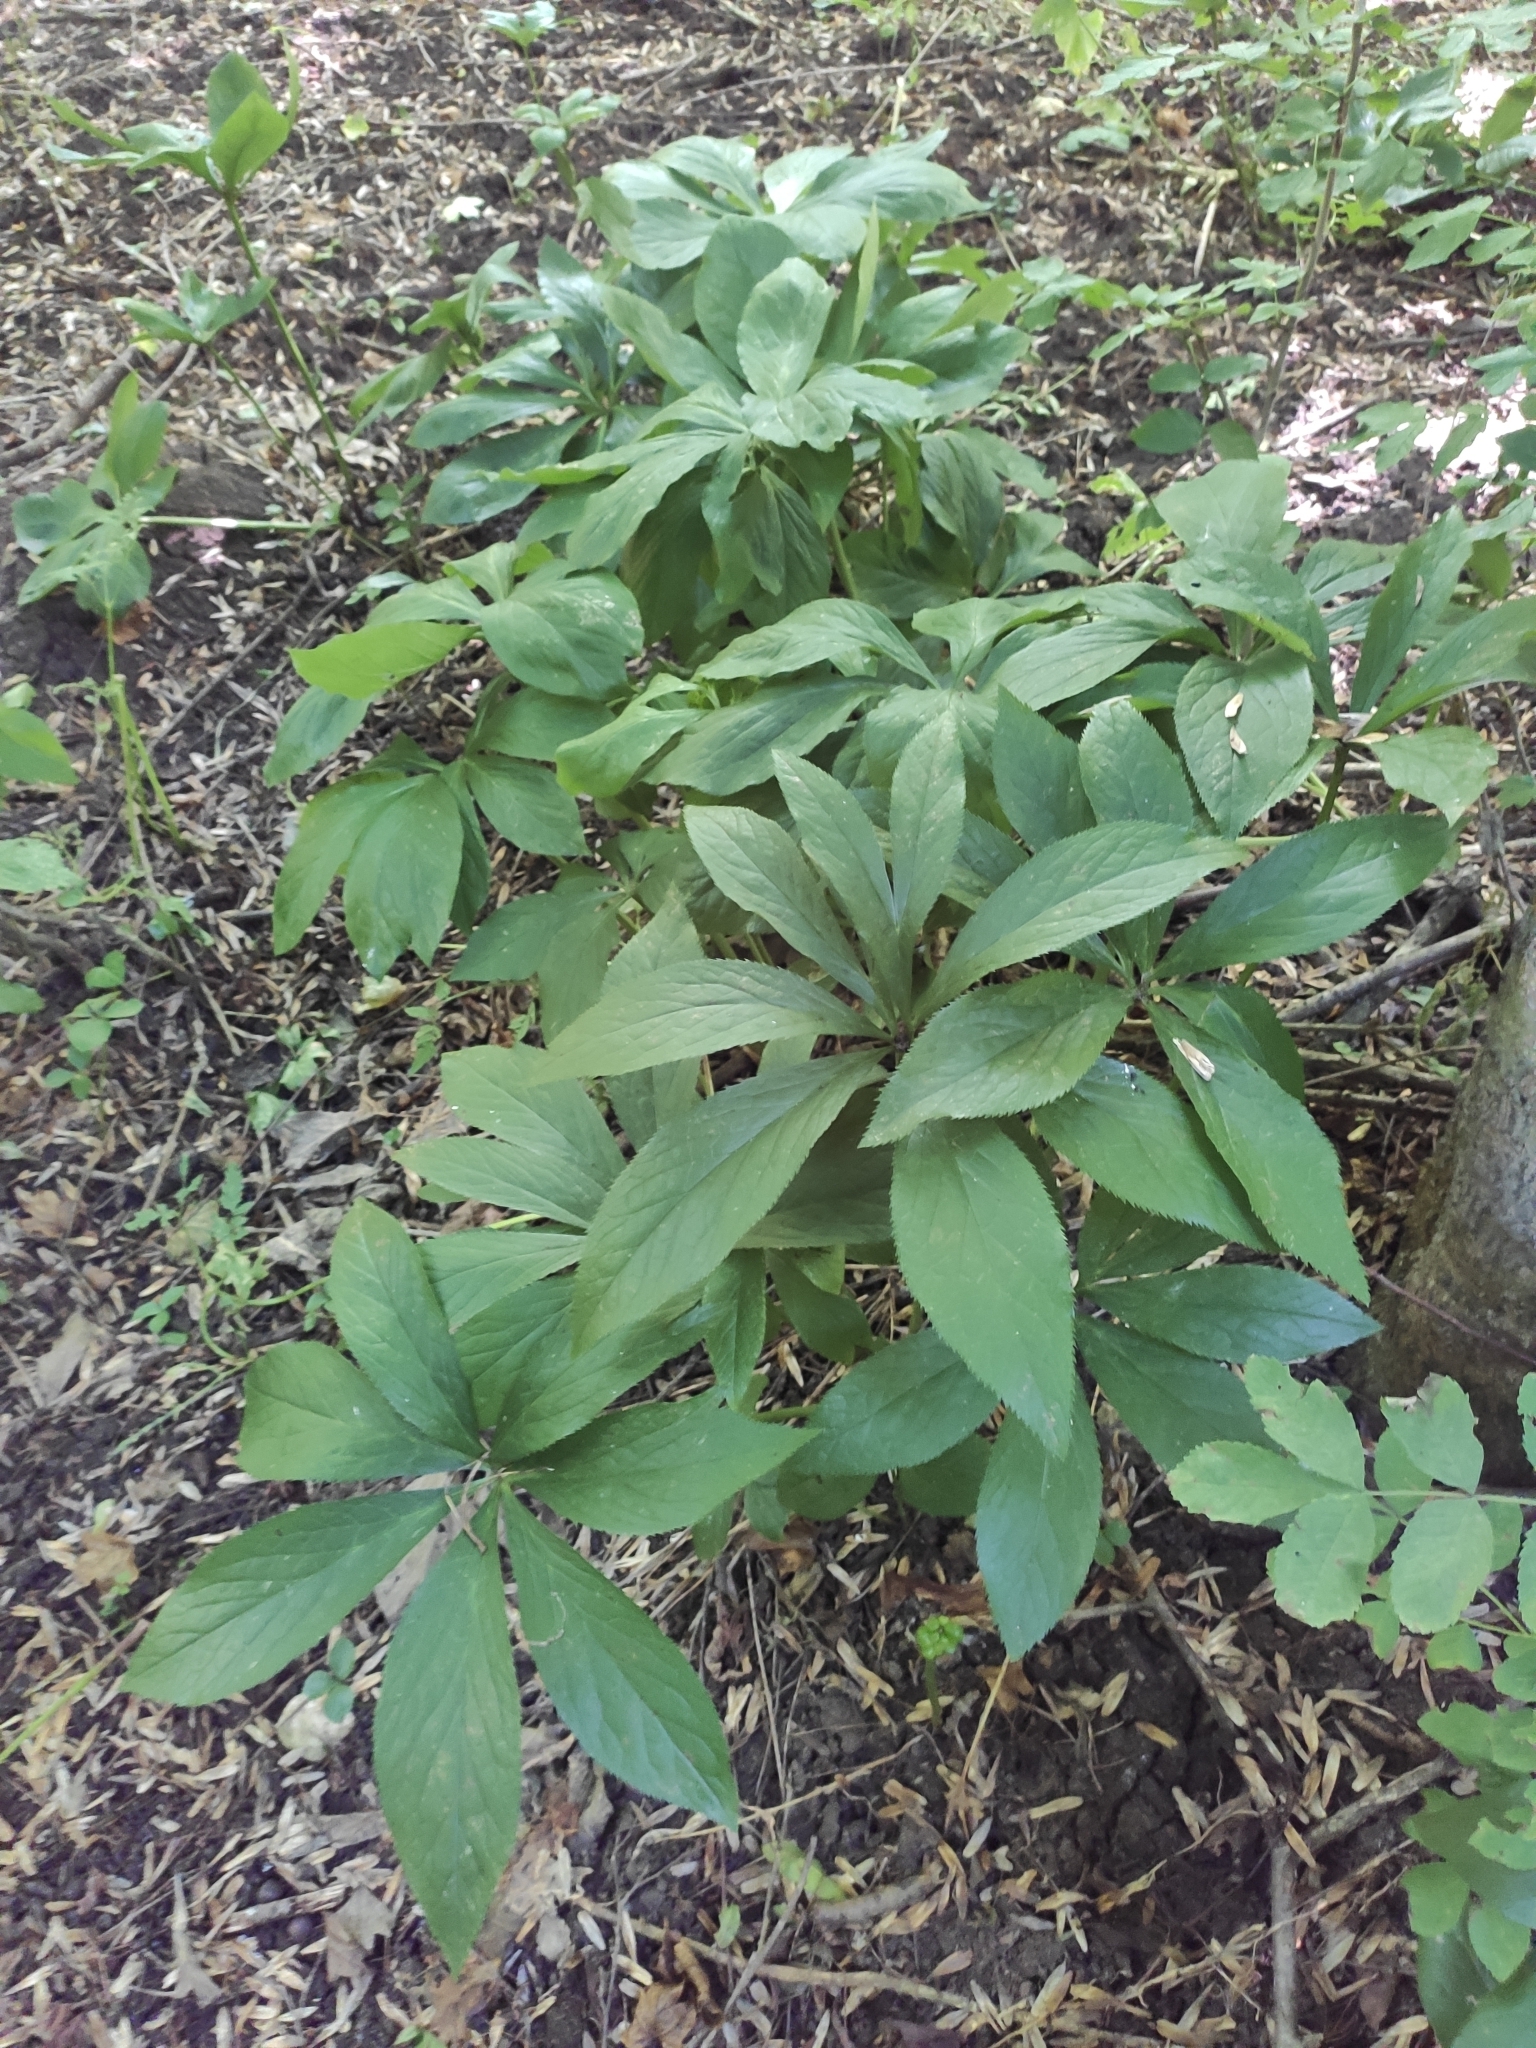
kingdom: Plantae
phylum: Tracheophyta
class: Magnoliopsida
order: Ranunculales
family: Ranunculaceae
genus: Helleborus
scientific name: Helleborus orientalis
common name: Lenten-rose
